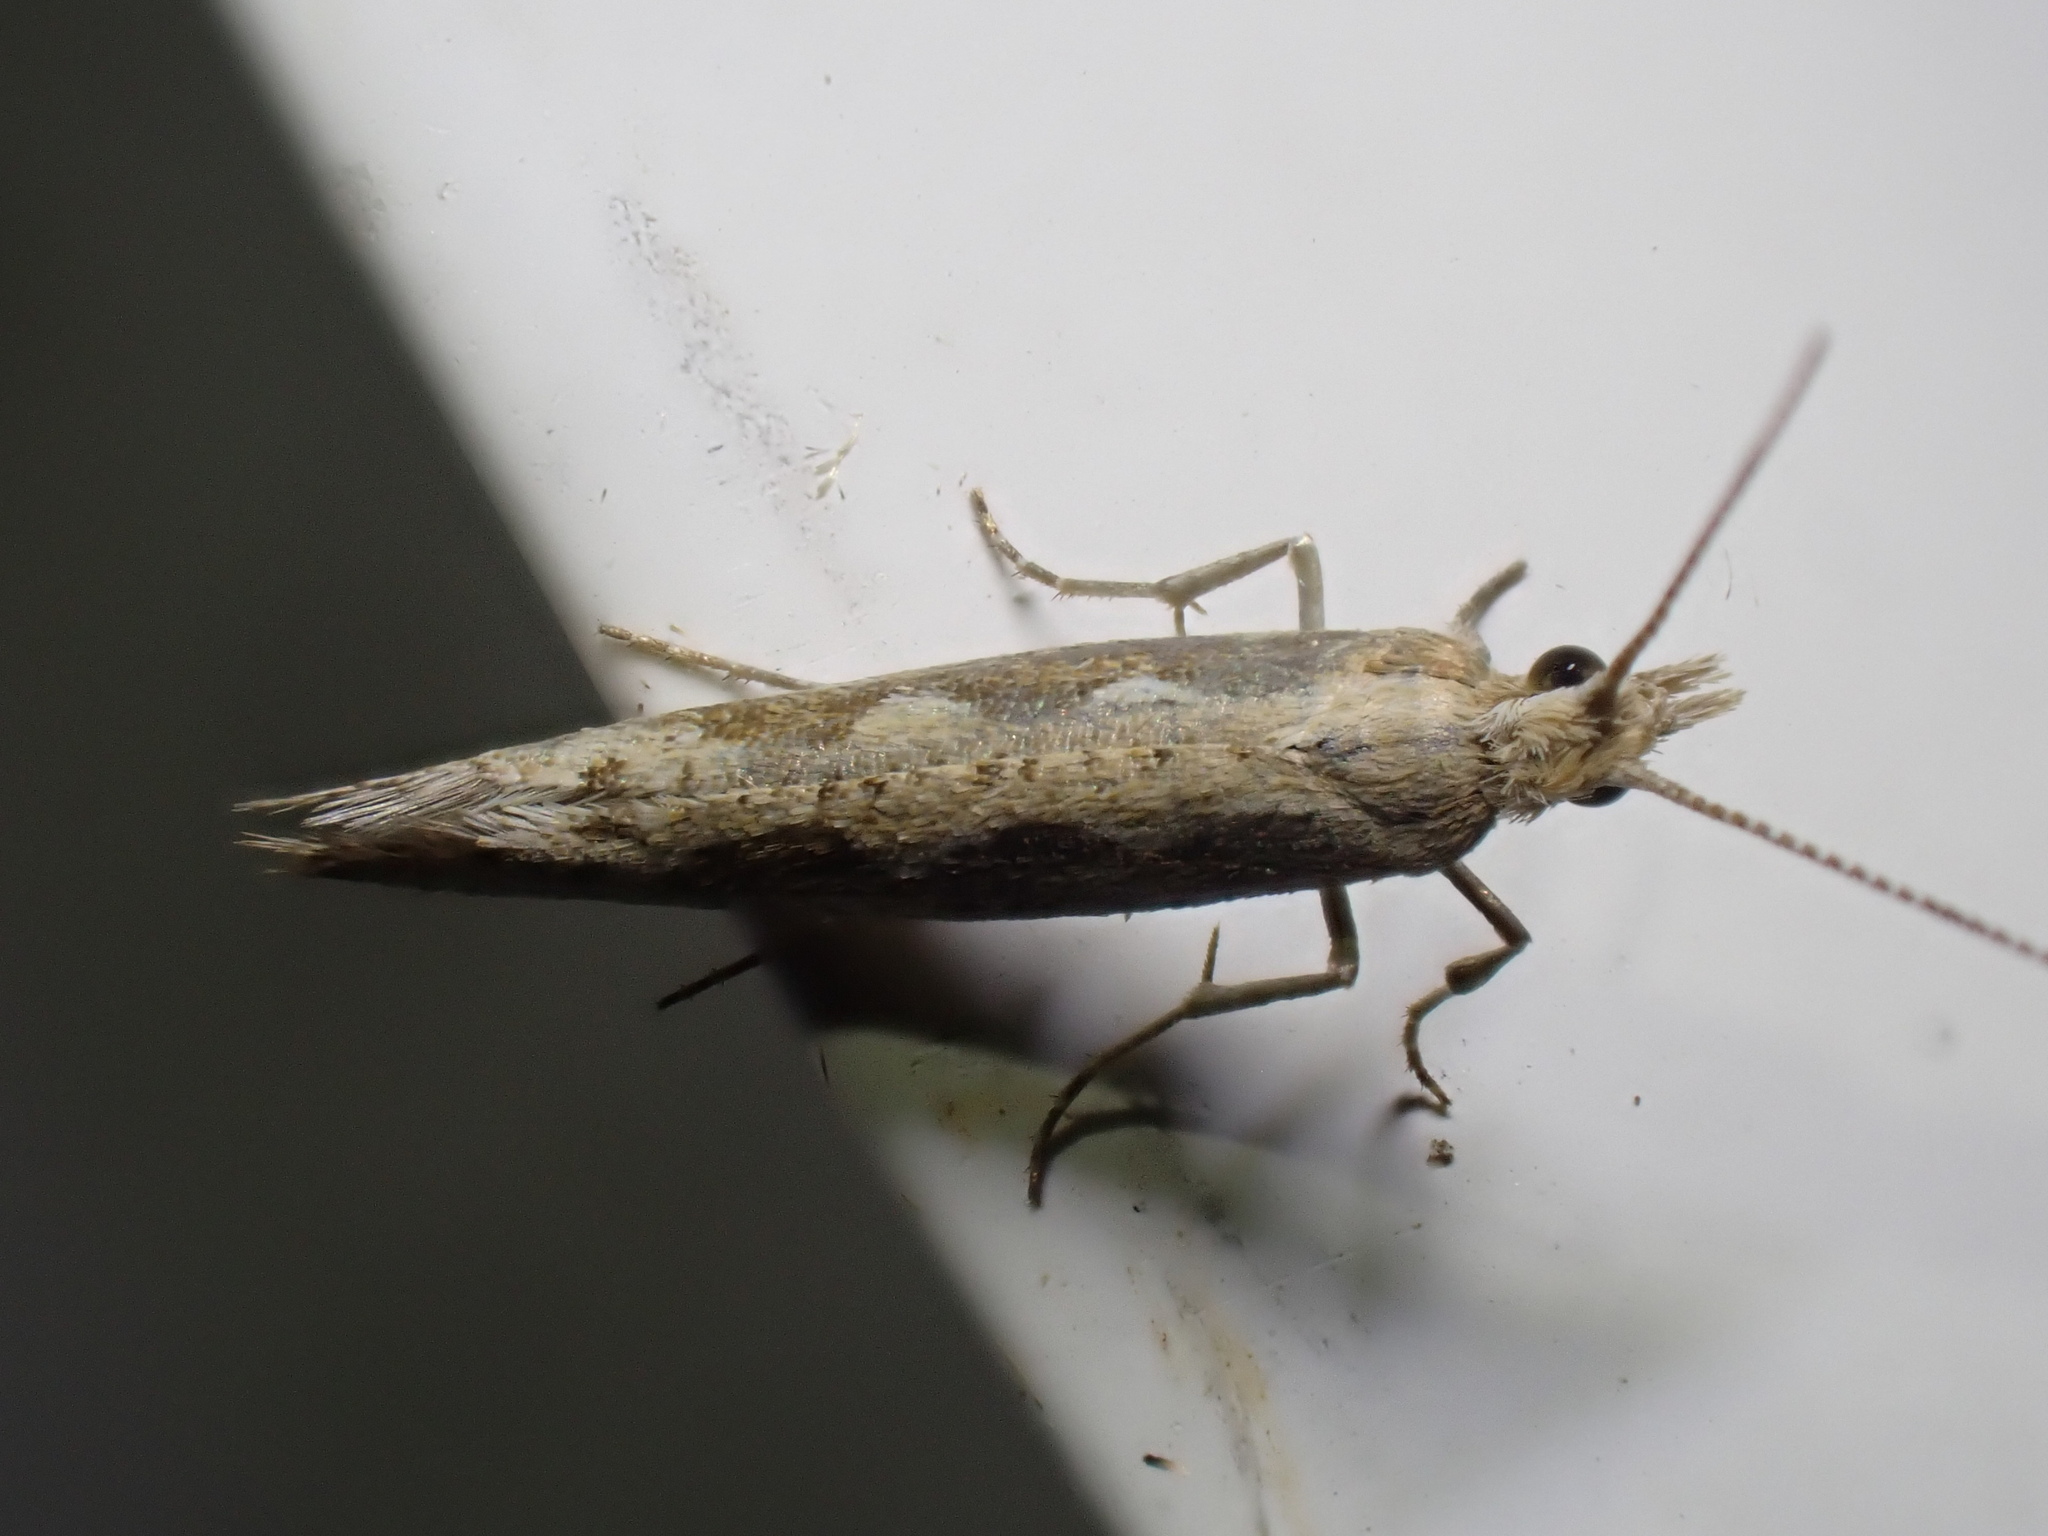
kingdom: Animalia
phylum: Arthropoda
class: Insecta
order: Lepidoptera
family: Plutellidae
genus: Plutella
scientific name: Plutella xylostella
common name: Diamond-back moth
